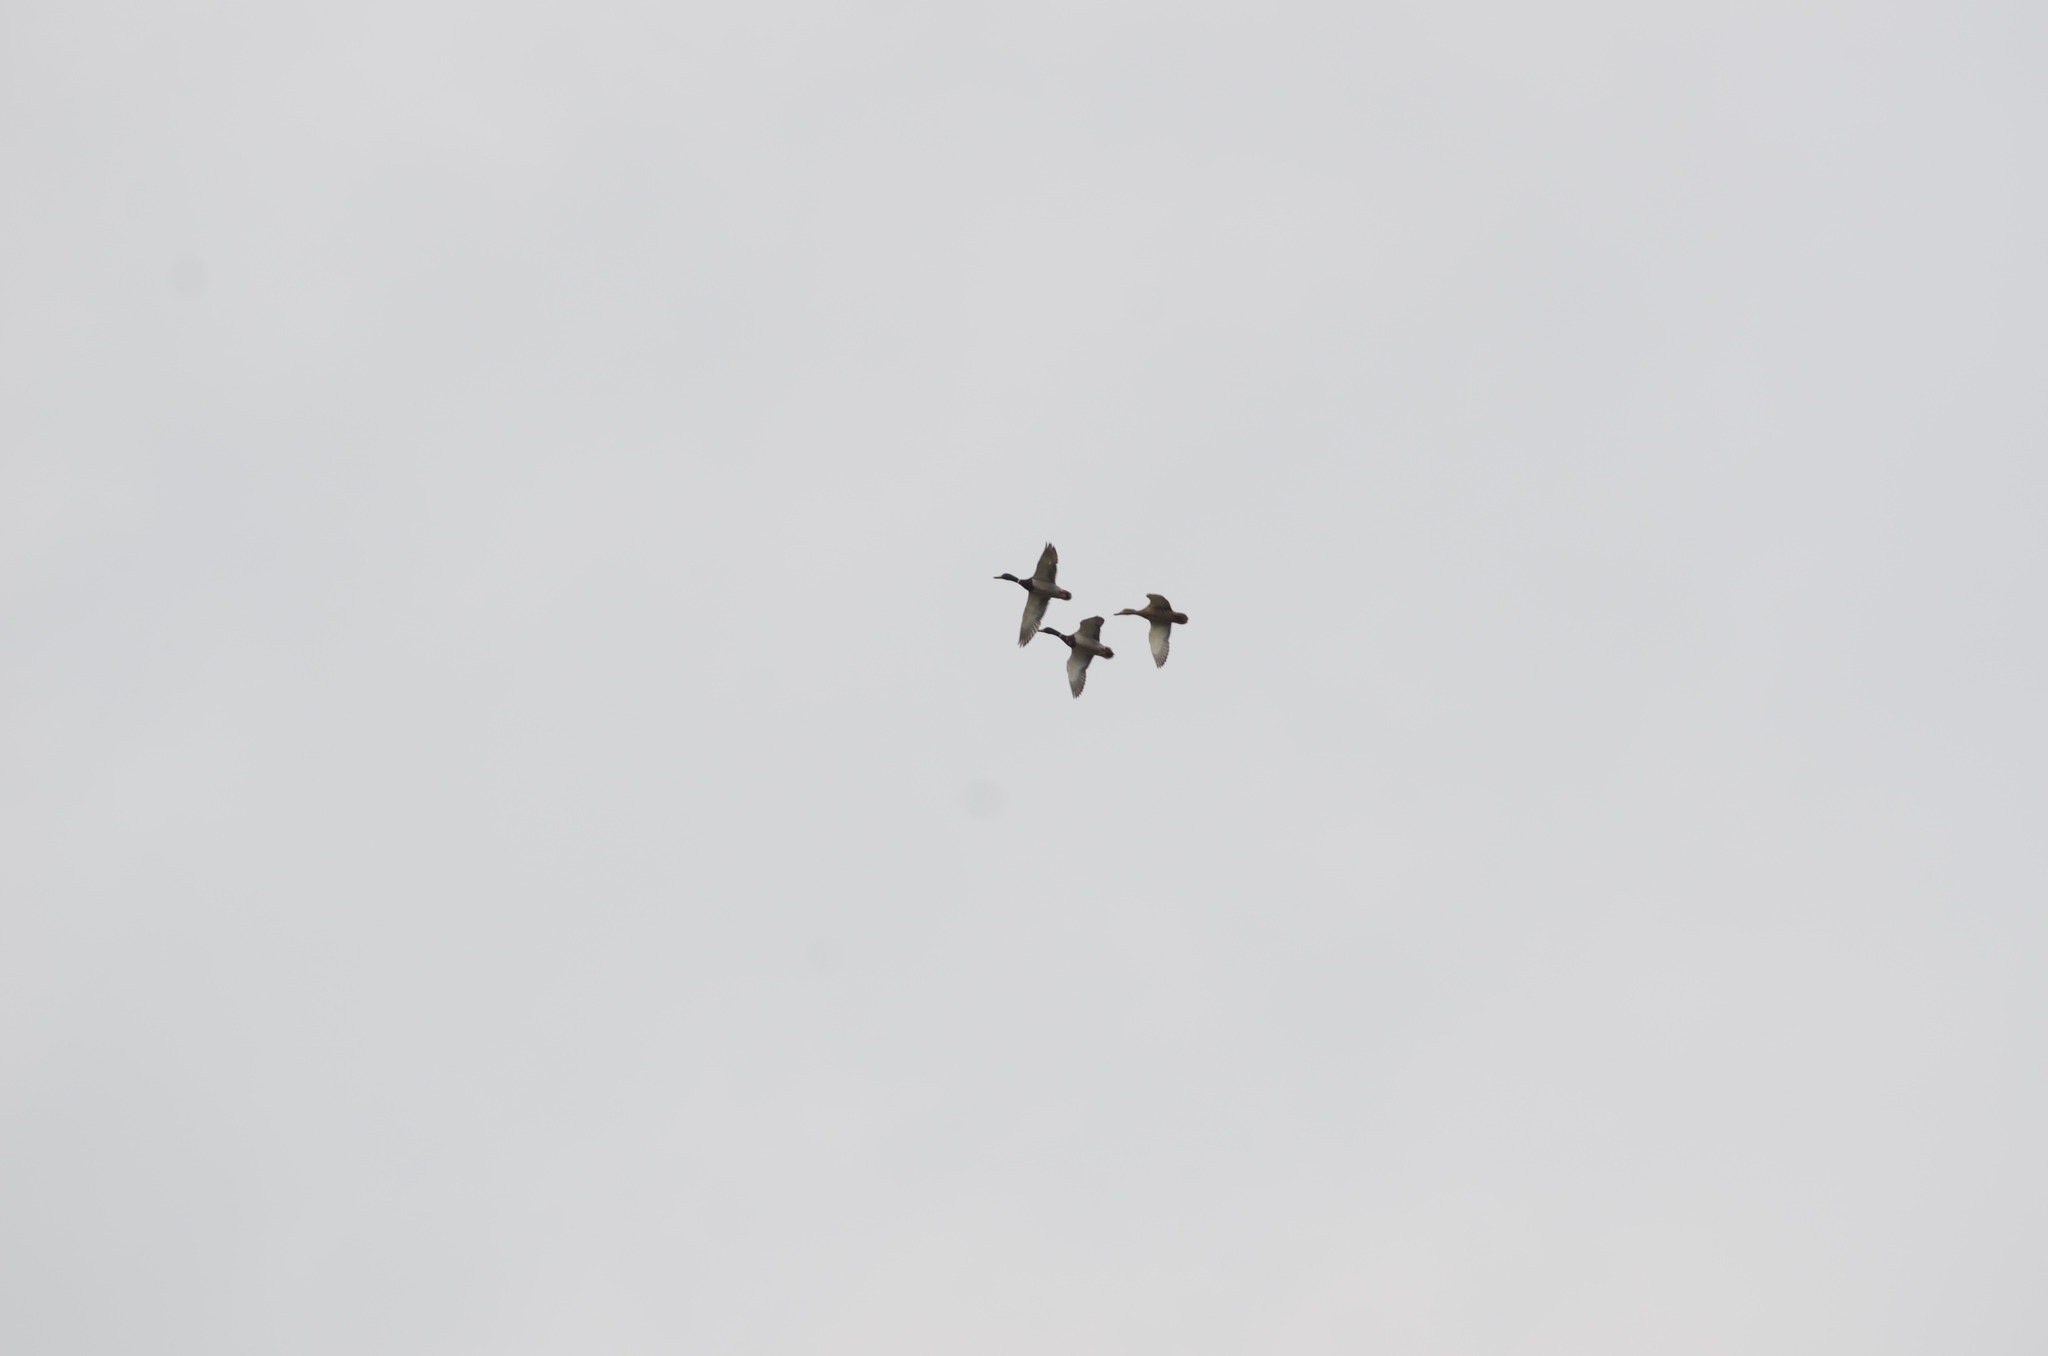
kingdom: Animalia
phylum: Chordata
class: Aves
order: Anseriformes
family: Anatidae
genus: Anas
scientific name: Anas platyrhynchos
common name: Mallard
